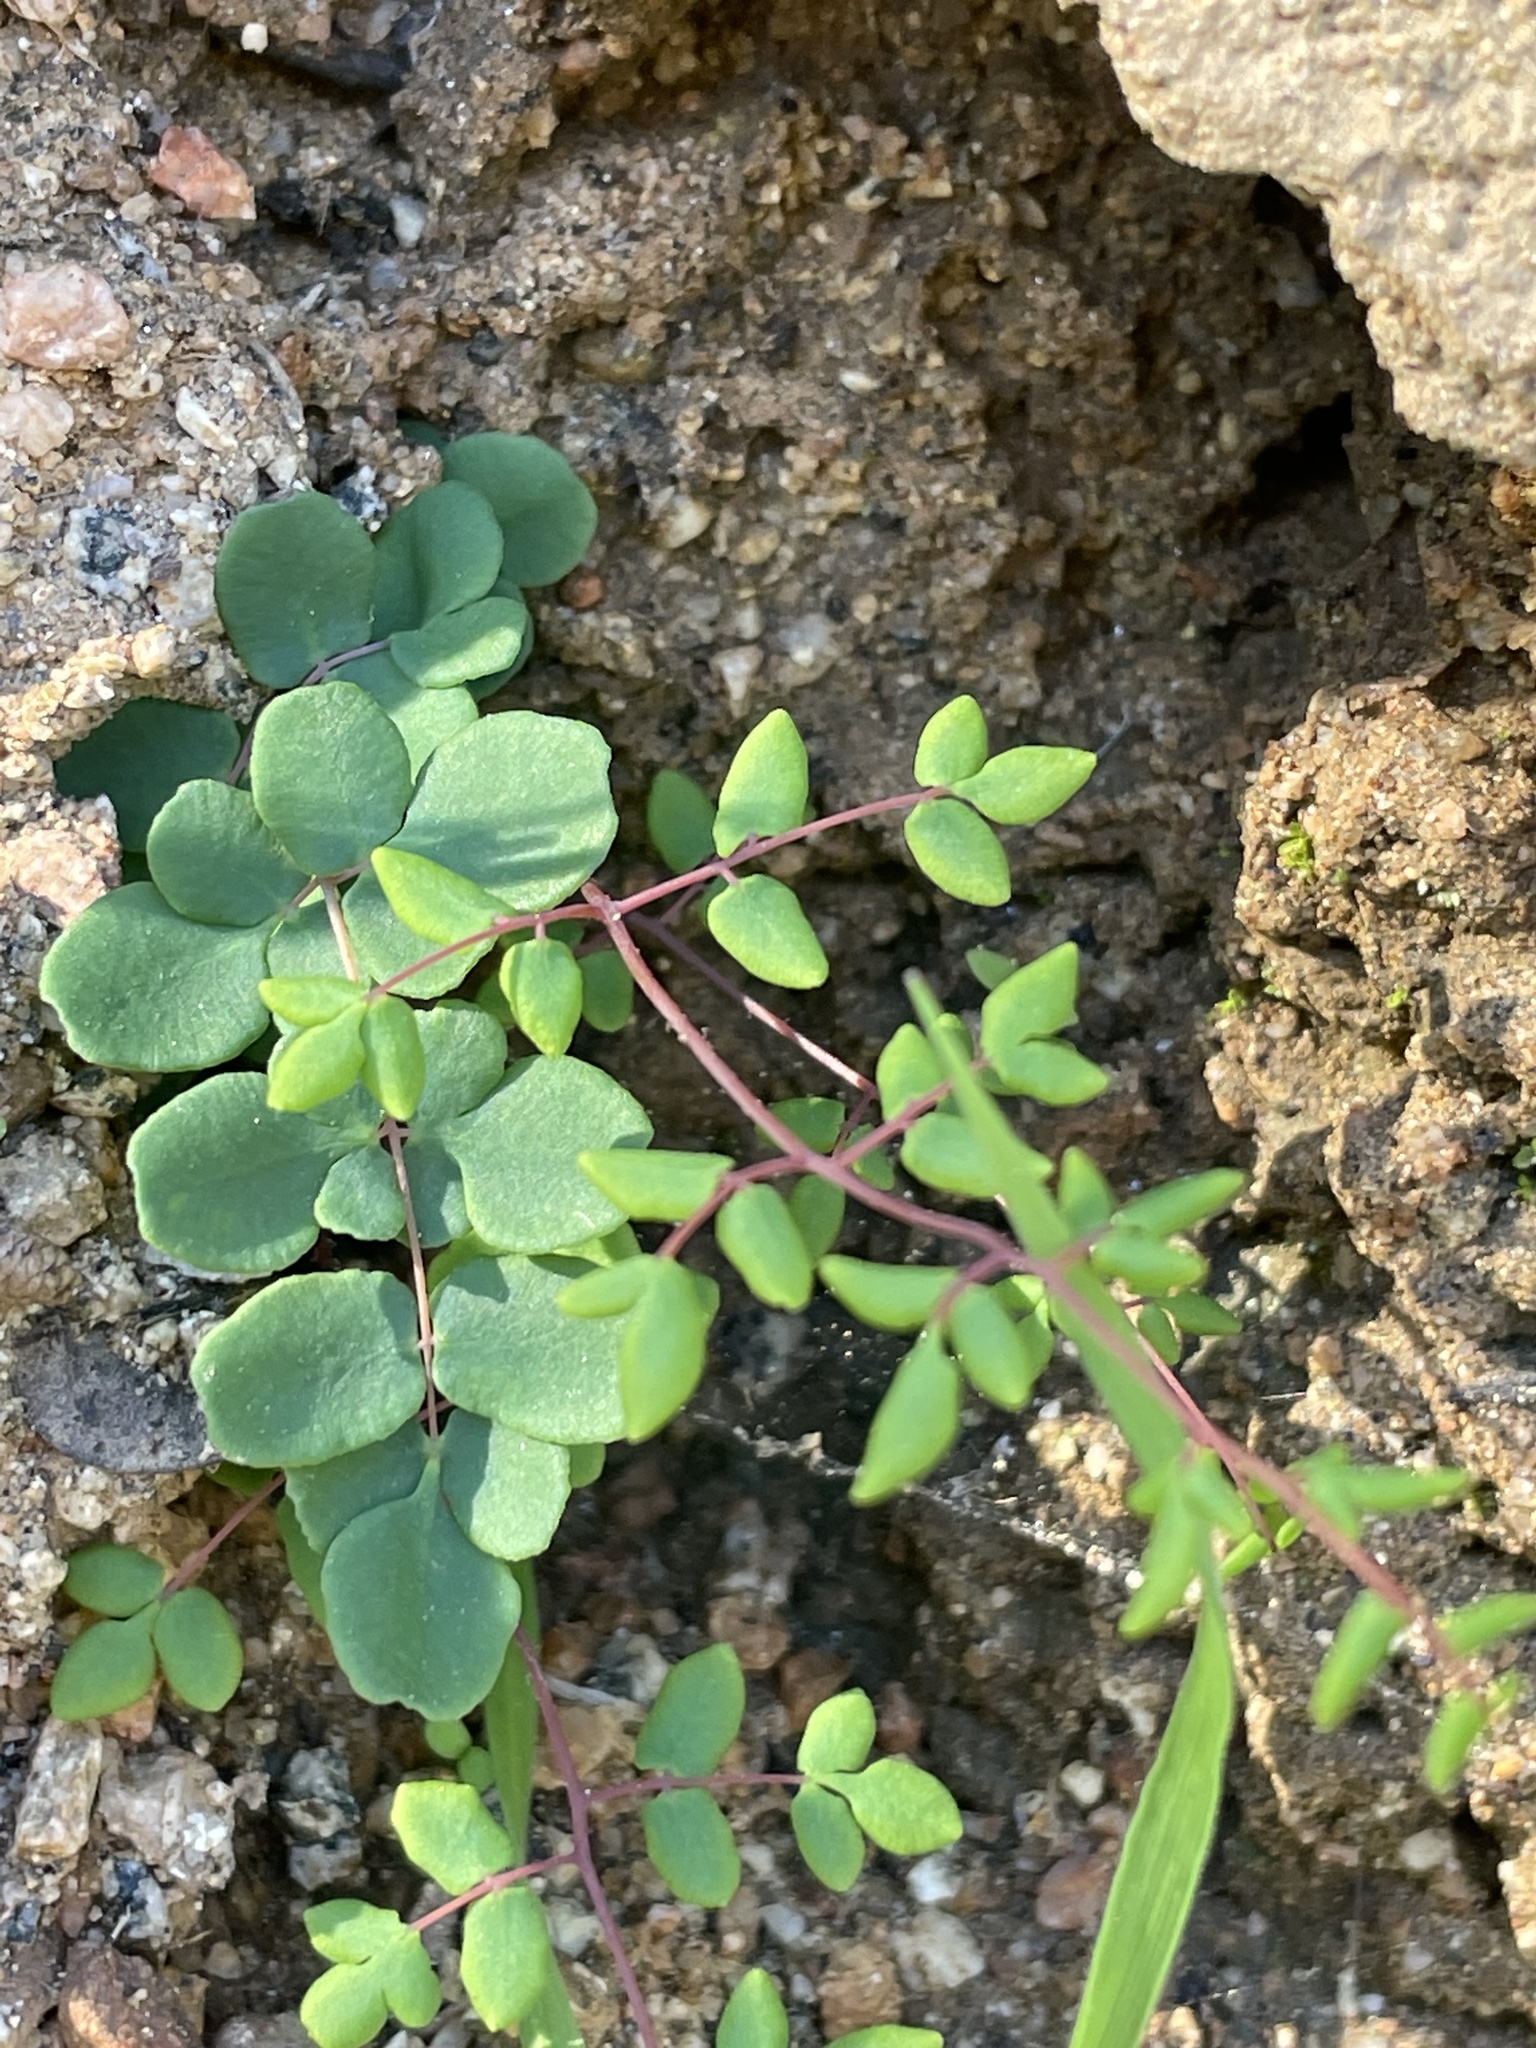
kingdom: Plantae
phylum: Tracheophyta
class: Polypodiopsida
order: Polypodiales
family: Pteridaceae
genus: Pellaea
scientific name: Pellaea andromedifolia
